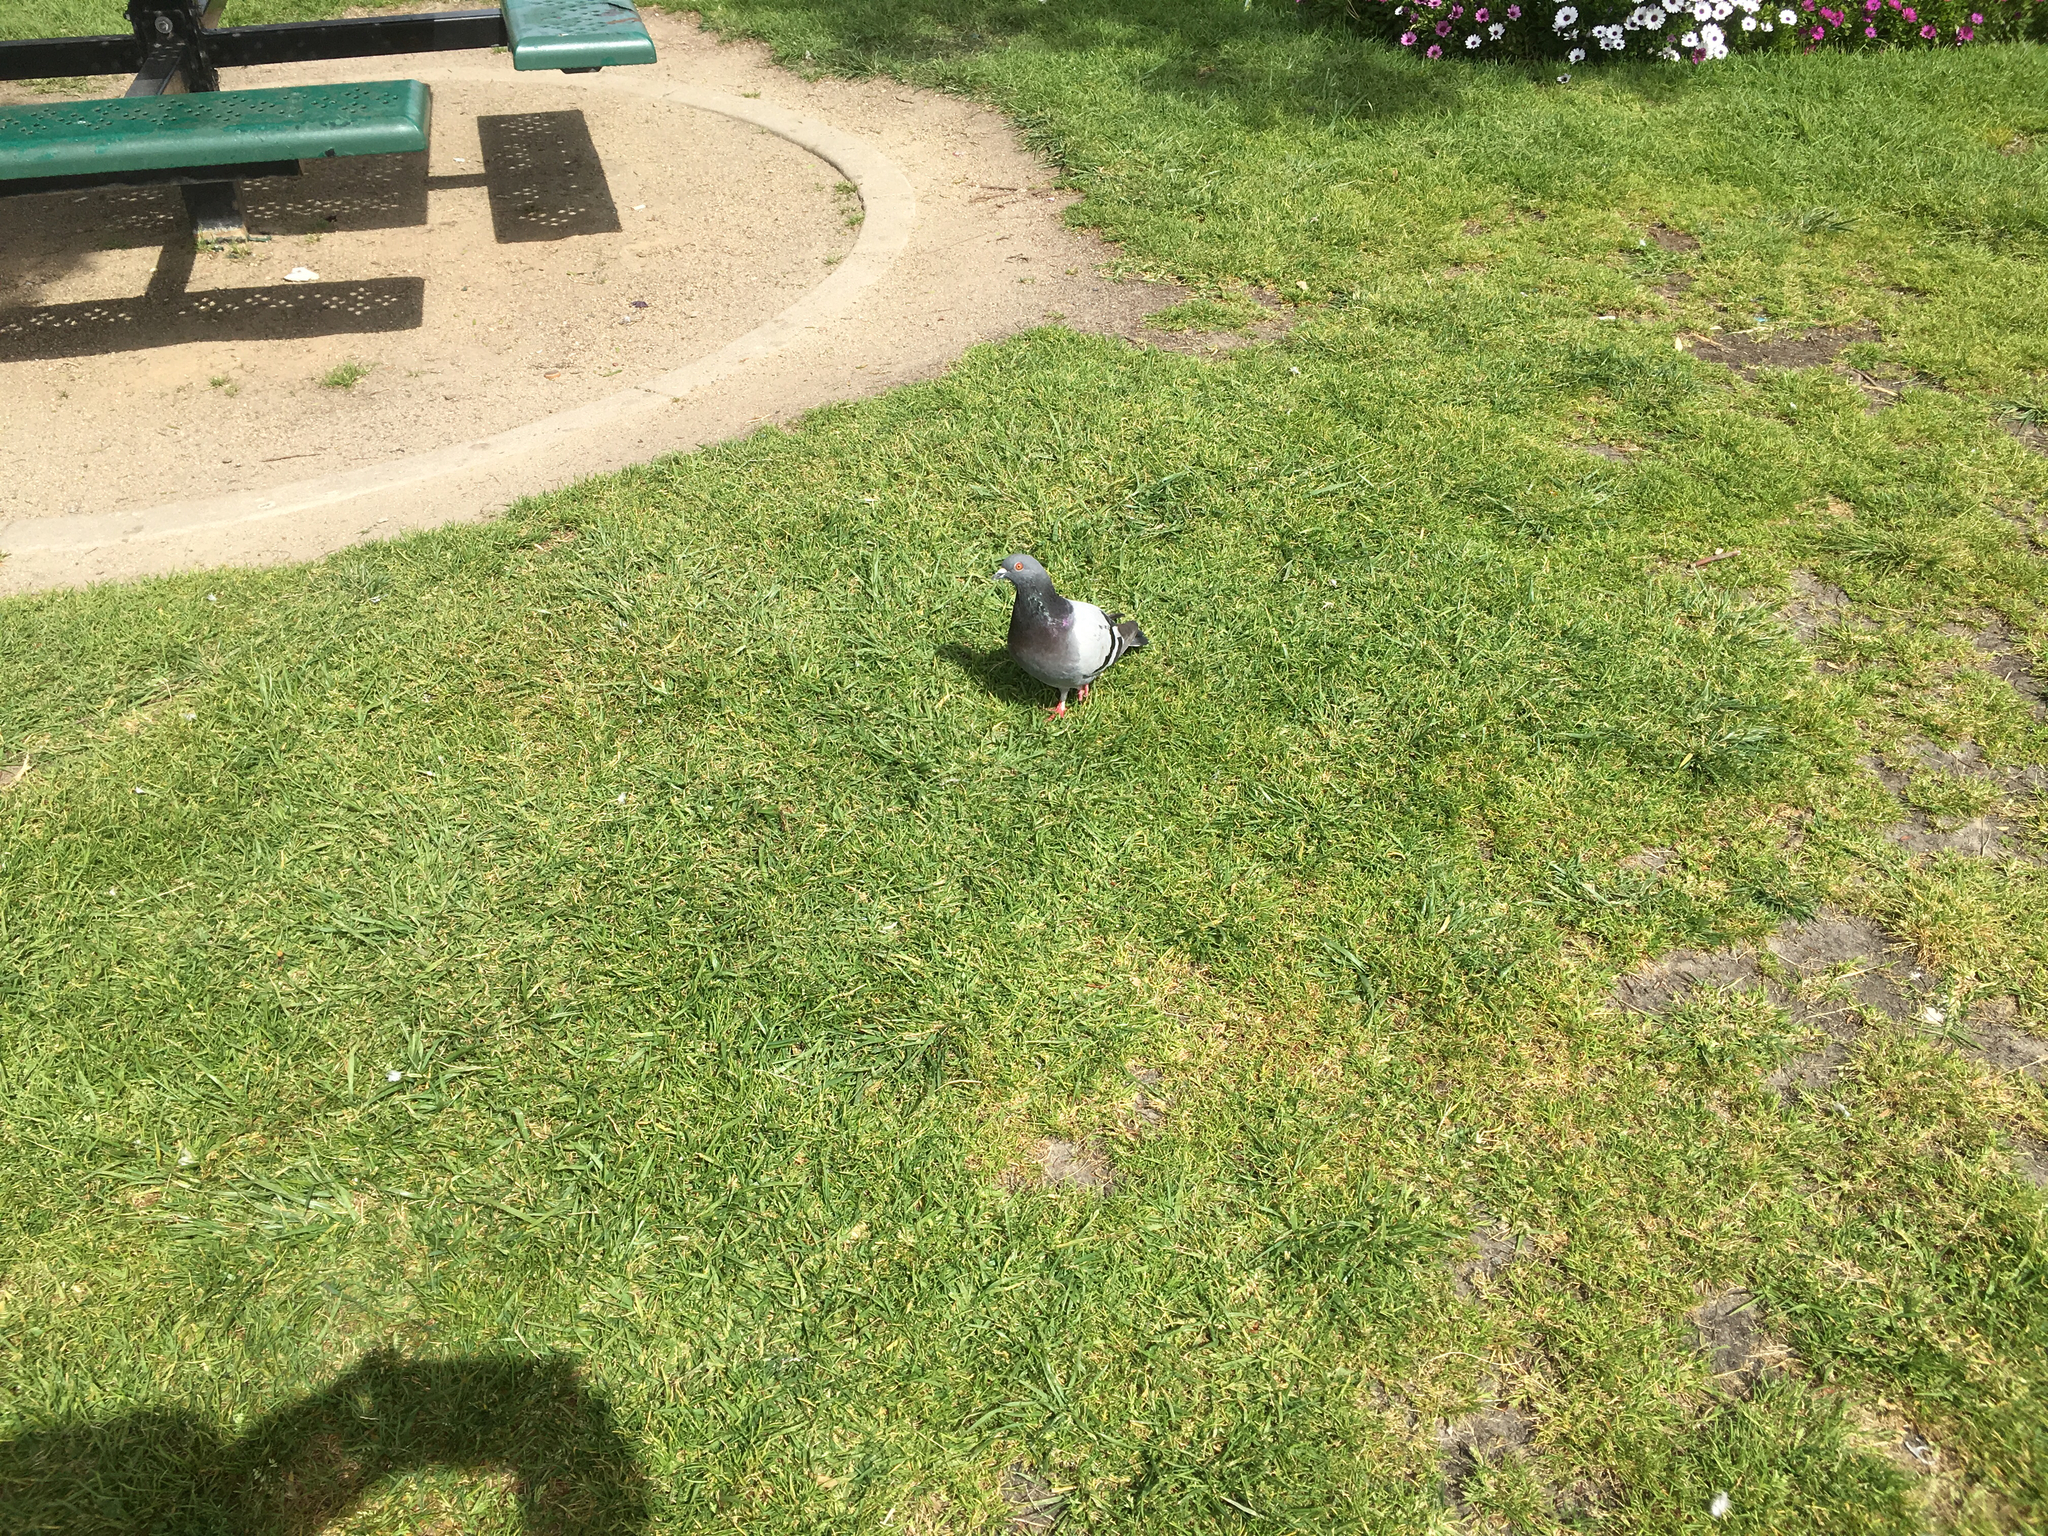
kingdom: Animalia
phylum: Chordata
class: Aves
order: Columbiformes
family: Columbidae
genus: Columba
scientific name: Columba livia
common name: Rock pigeon
